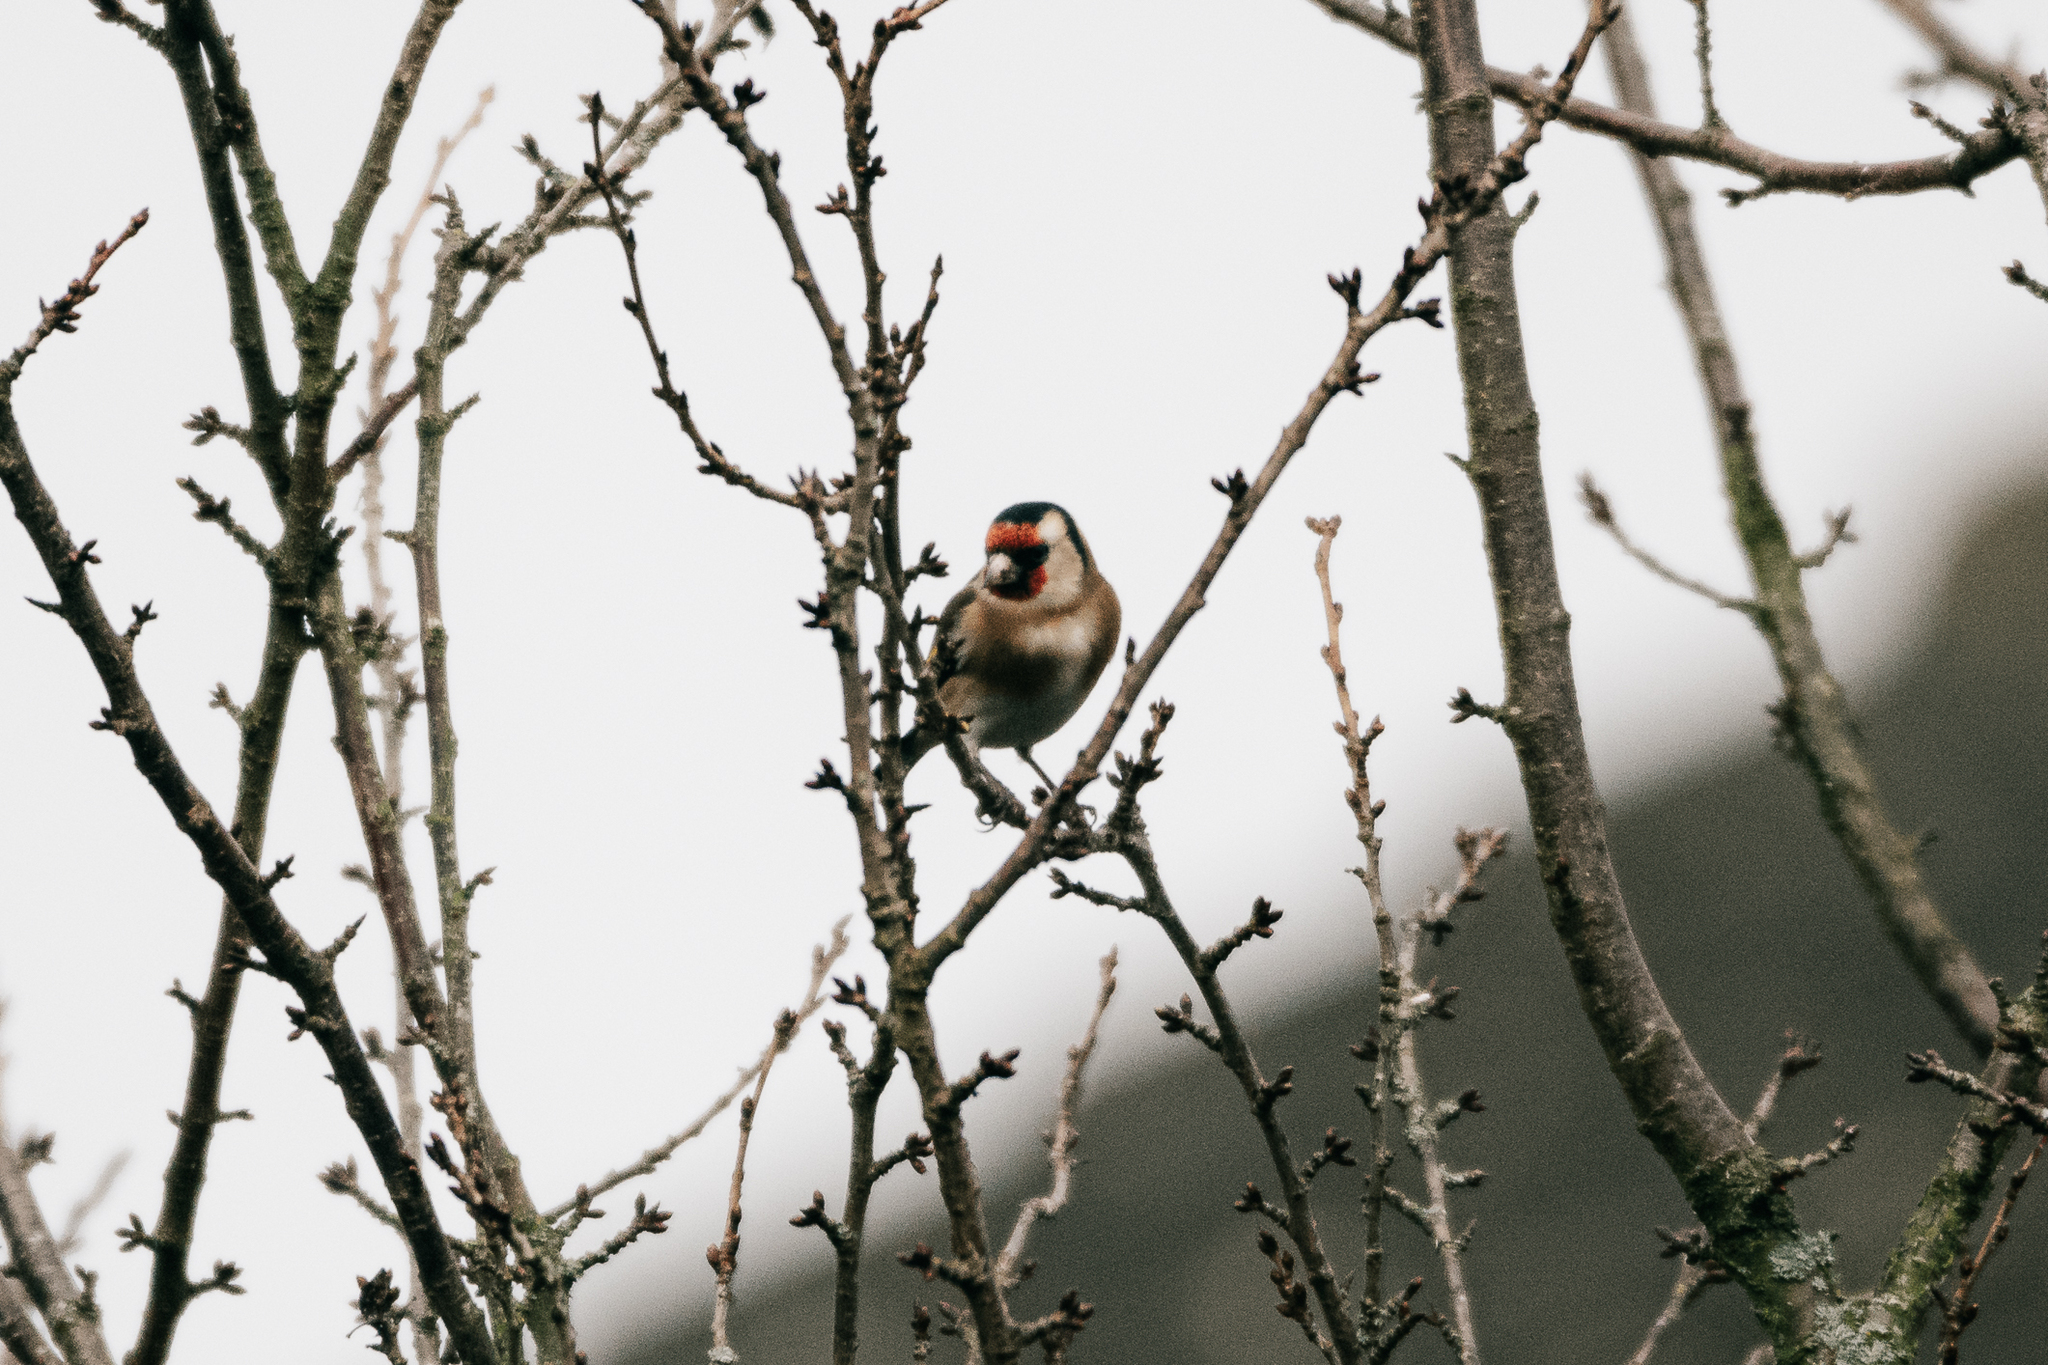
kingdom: Animalia
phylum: Chordata
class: Aves
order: Passeriformes
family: Fringillidae
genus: Carduelis
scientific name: Carduelis carduelis
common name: European goldfinch
